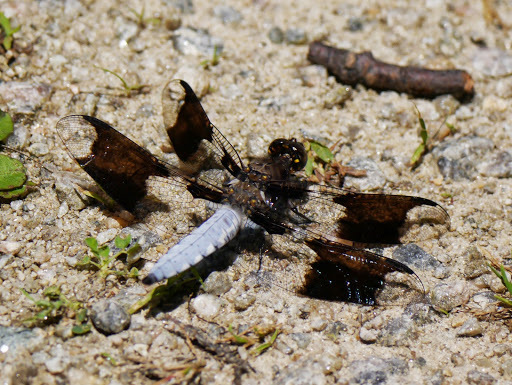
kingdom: Animalia
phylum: Arthropoda
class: Insecta
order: Odonata
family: Libellulidae
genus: Plathemis
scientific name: Plathemis lydia
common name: Common whitetail
